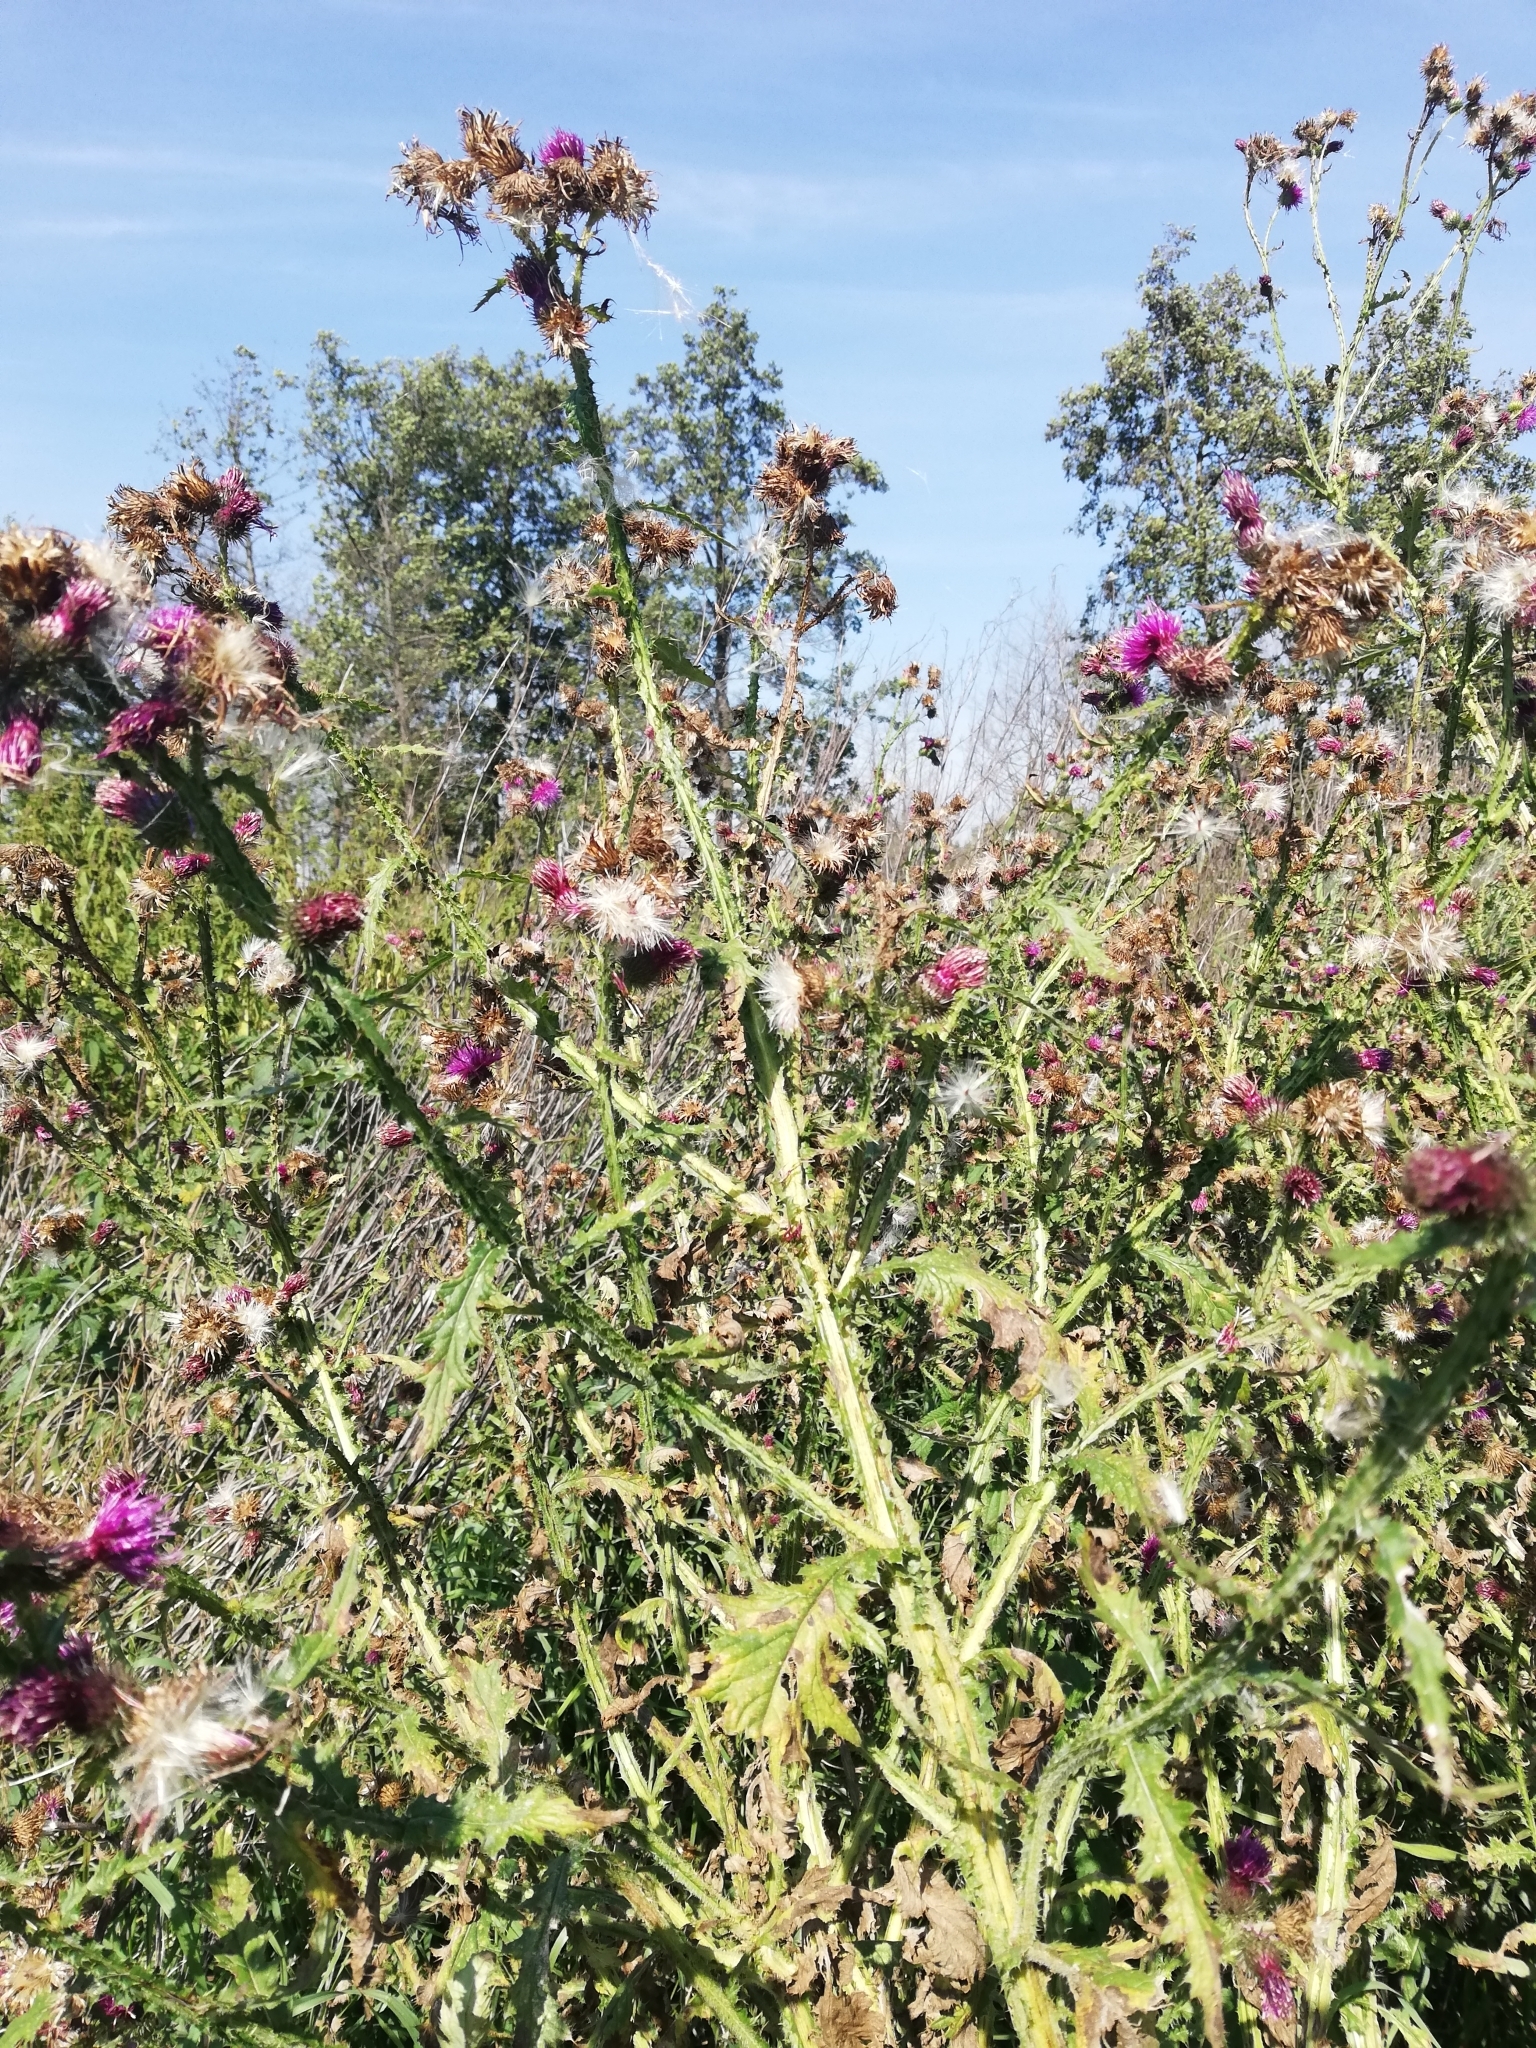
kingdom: Plantae
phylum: Tracheophyta
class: Magnoliopsida
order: Asterales
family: Asteraceae
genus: Carduus
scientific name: Carduus acanthoides
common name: Plumeless thistle
